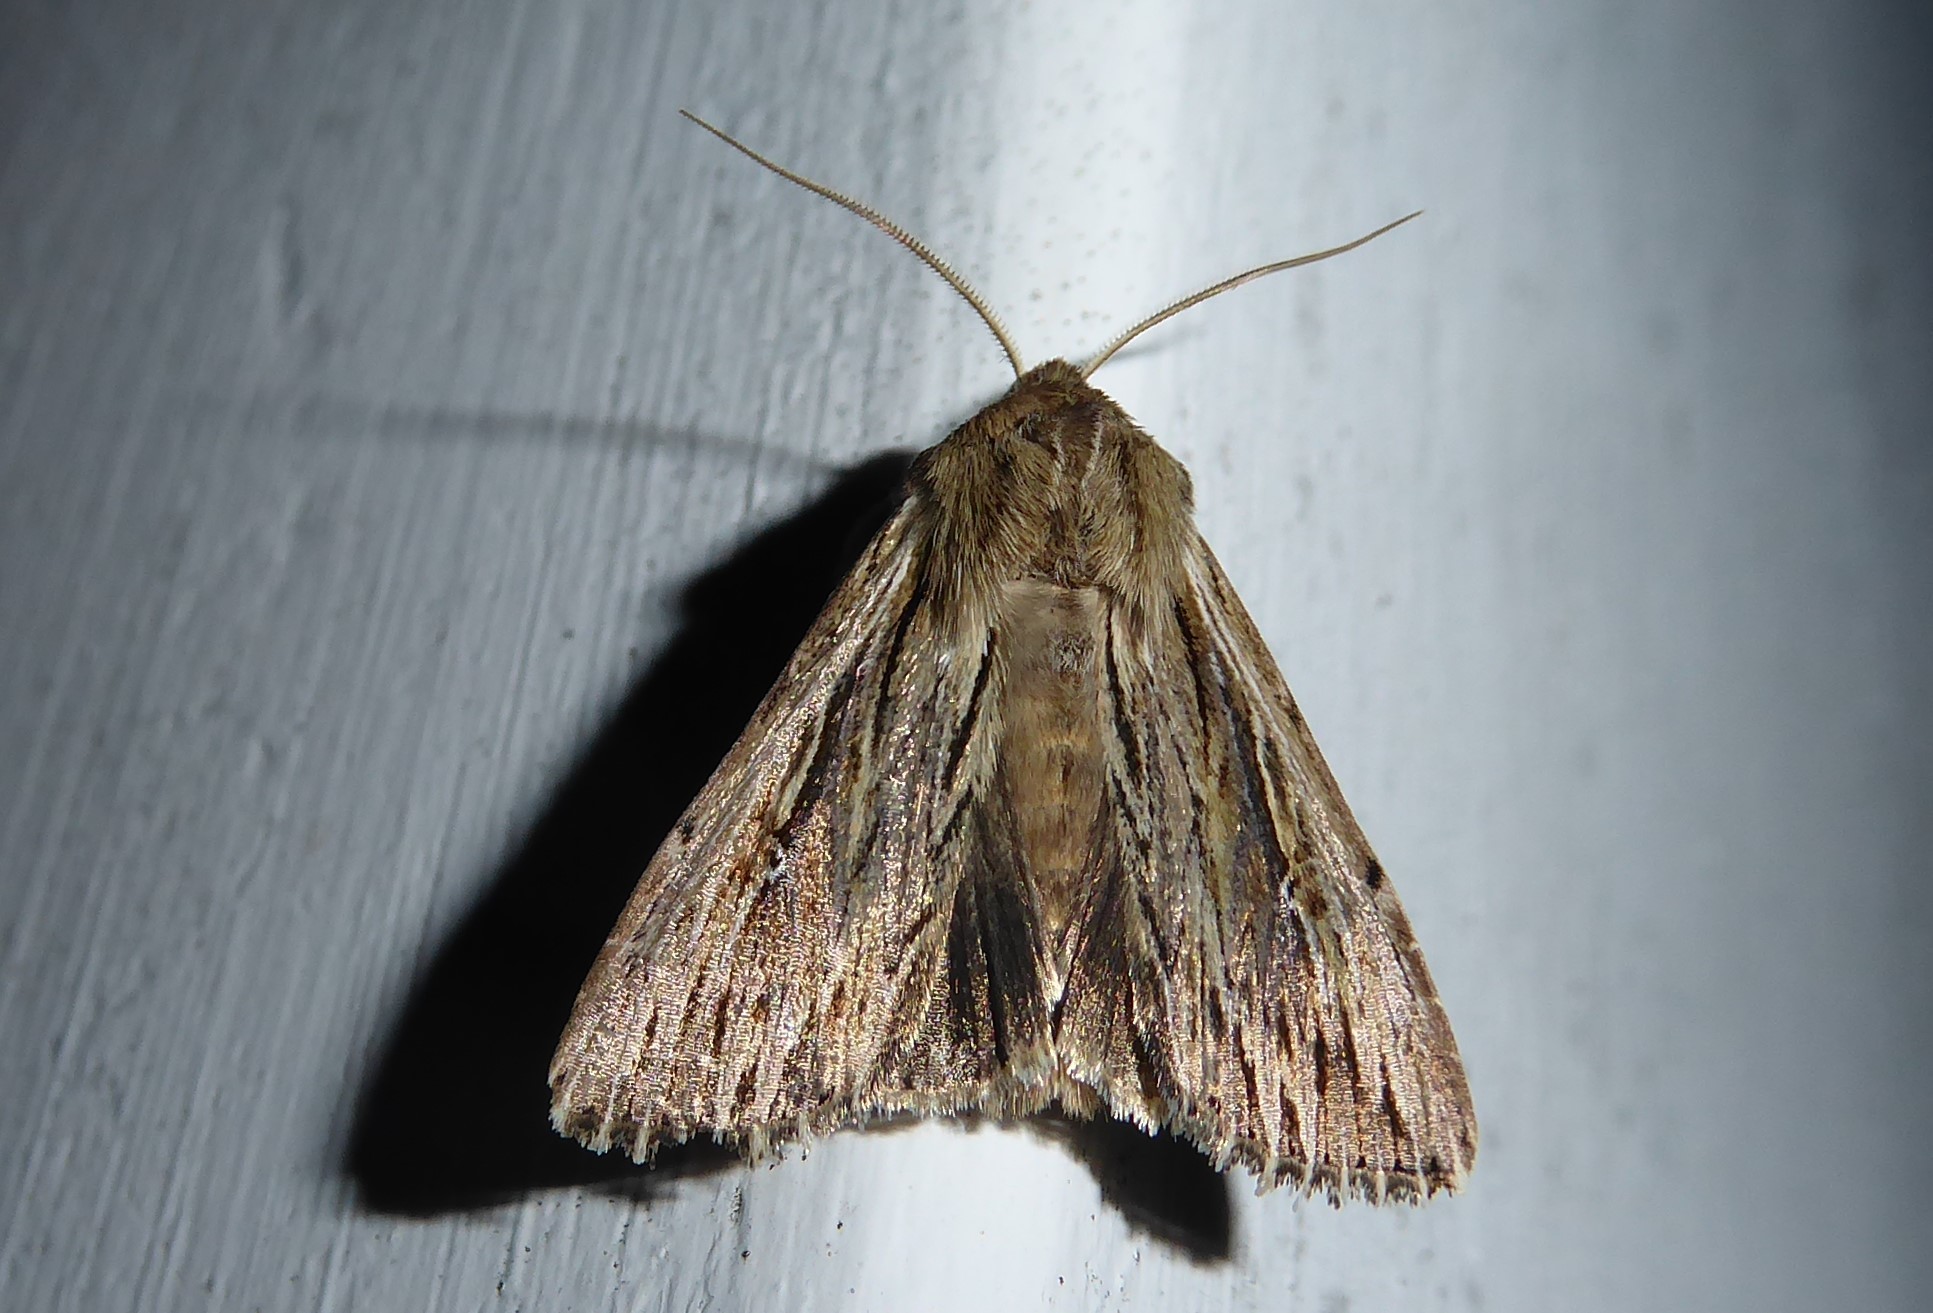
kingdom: Animalia
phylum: Arthropoda
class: Insecta
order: Lepidoptera
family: Noctuidae
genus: Persectania
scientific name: Persectania aversa
